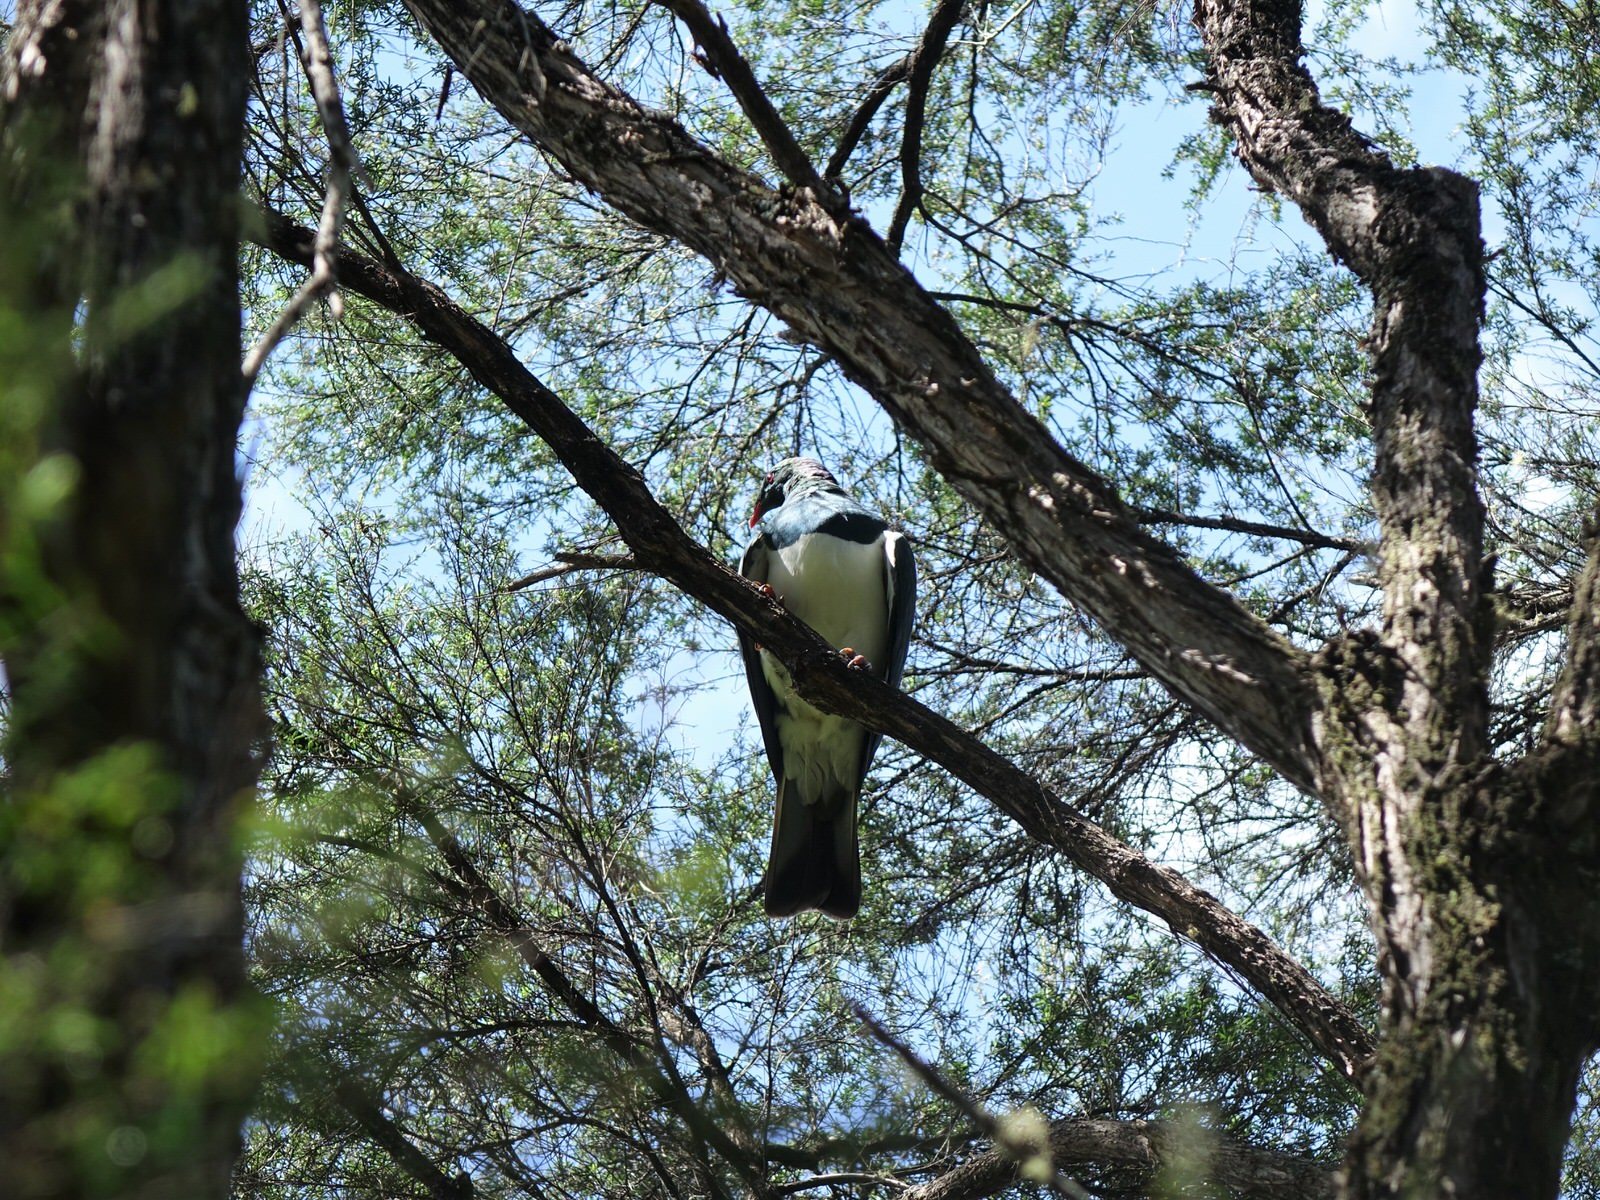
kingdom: Animalia
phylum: Chordata
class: Aves
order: Columbiformes
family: Columbidae
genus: Hemiphaga
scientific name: Hemiphaga novaeseelandiae
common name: New zealand pigeon
